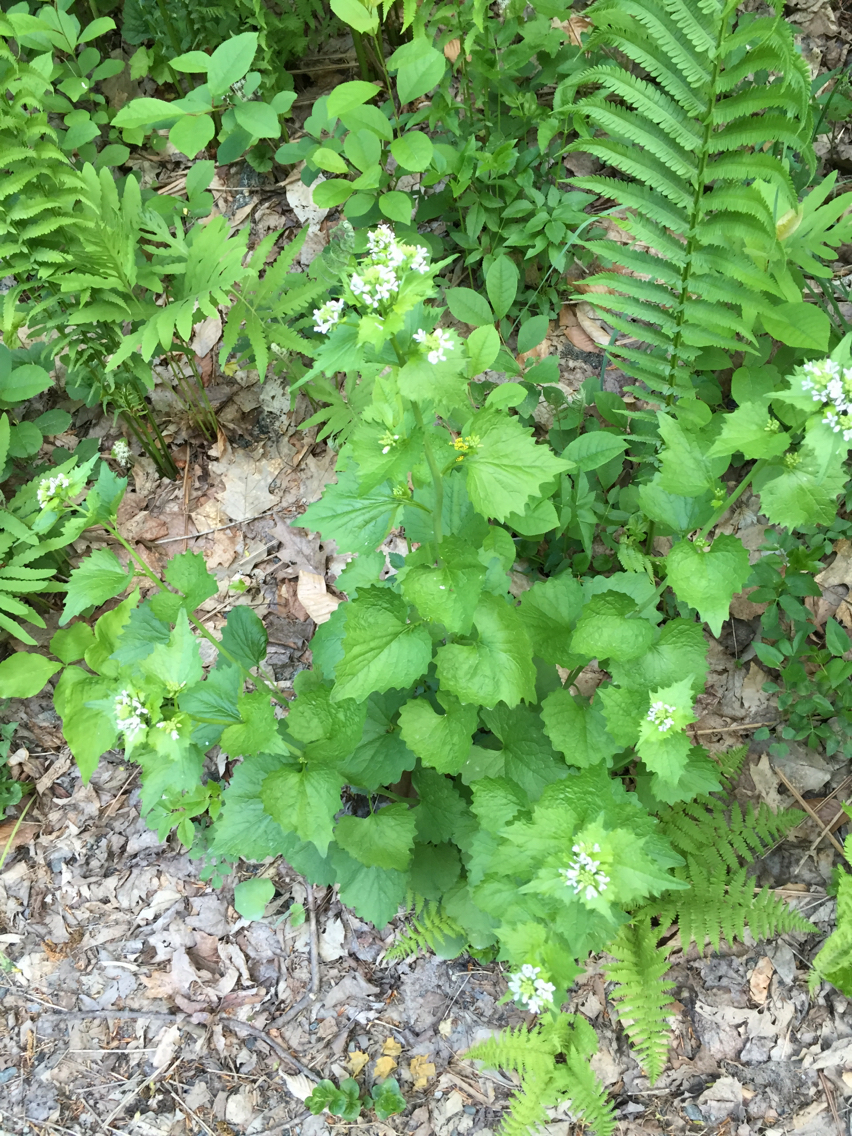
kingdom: Plantae
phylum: Tracheophyta
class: Magnoliopsida
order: Brassicales
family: Brassicaceae
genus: Alliaria
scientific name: Alliaria petiolata
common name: Garlic mustard
